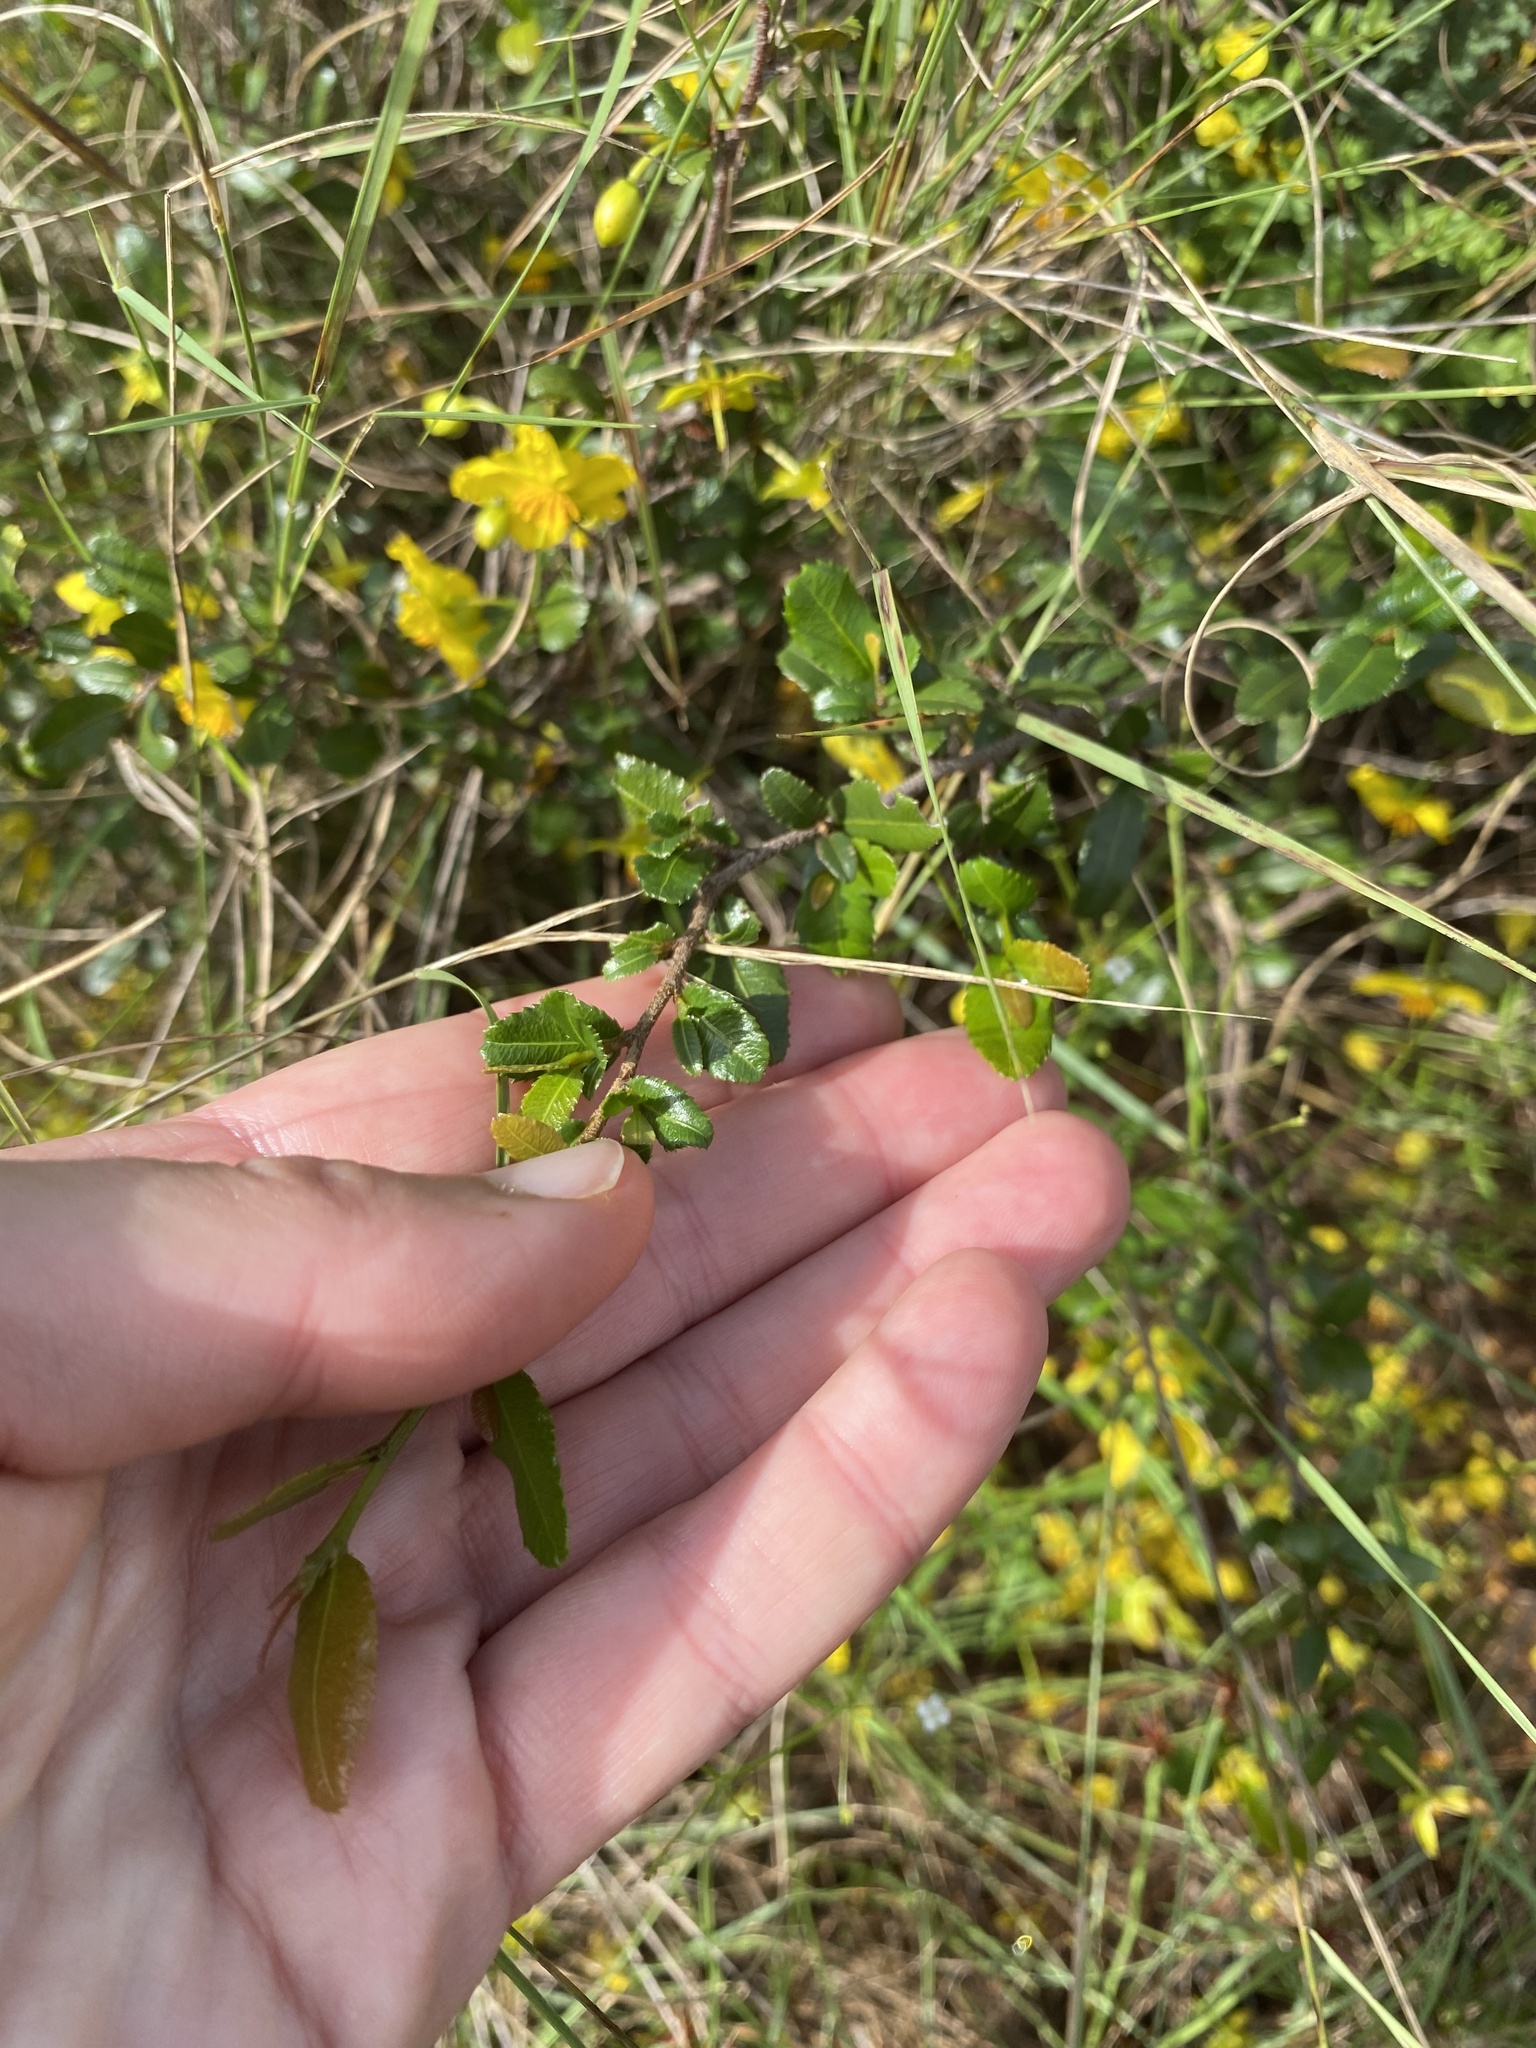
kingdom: Plantae
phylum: Tracheophyta
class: Magnoliopsida
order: Malpighiales
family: Ochnaceae
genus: Ochna
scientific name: Ochna serrulata
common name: Mickey mouse plant
